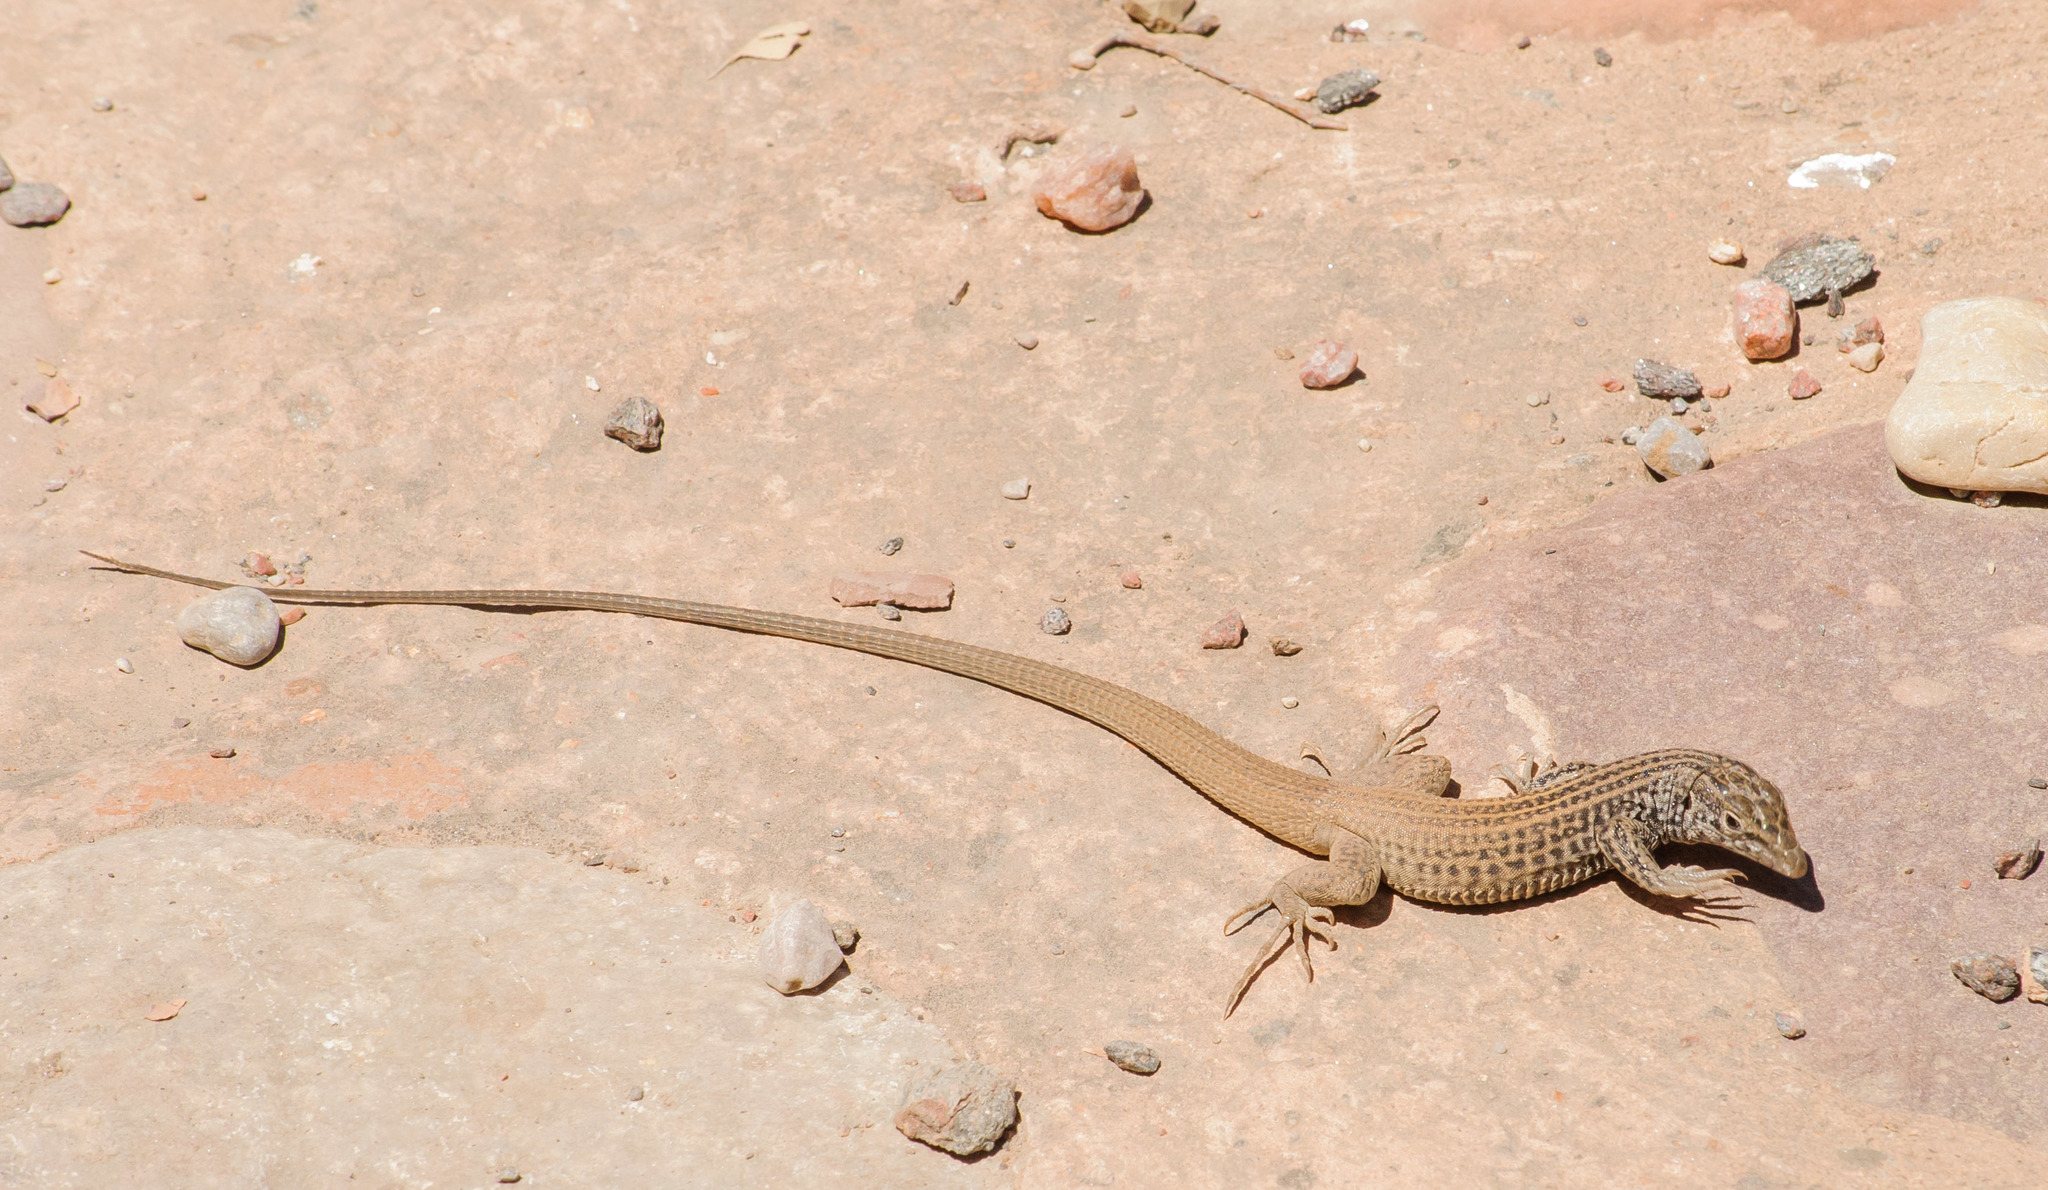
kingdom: Animalia
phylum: Chordata
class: Squamata
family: Teiidae
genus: Aspidoscelis
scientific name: Aspidoscelis tigris
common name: Tiger whiptail
